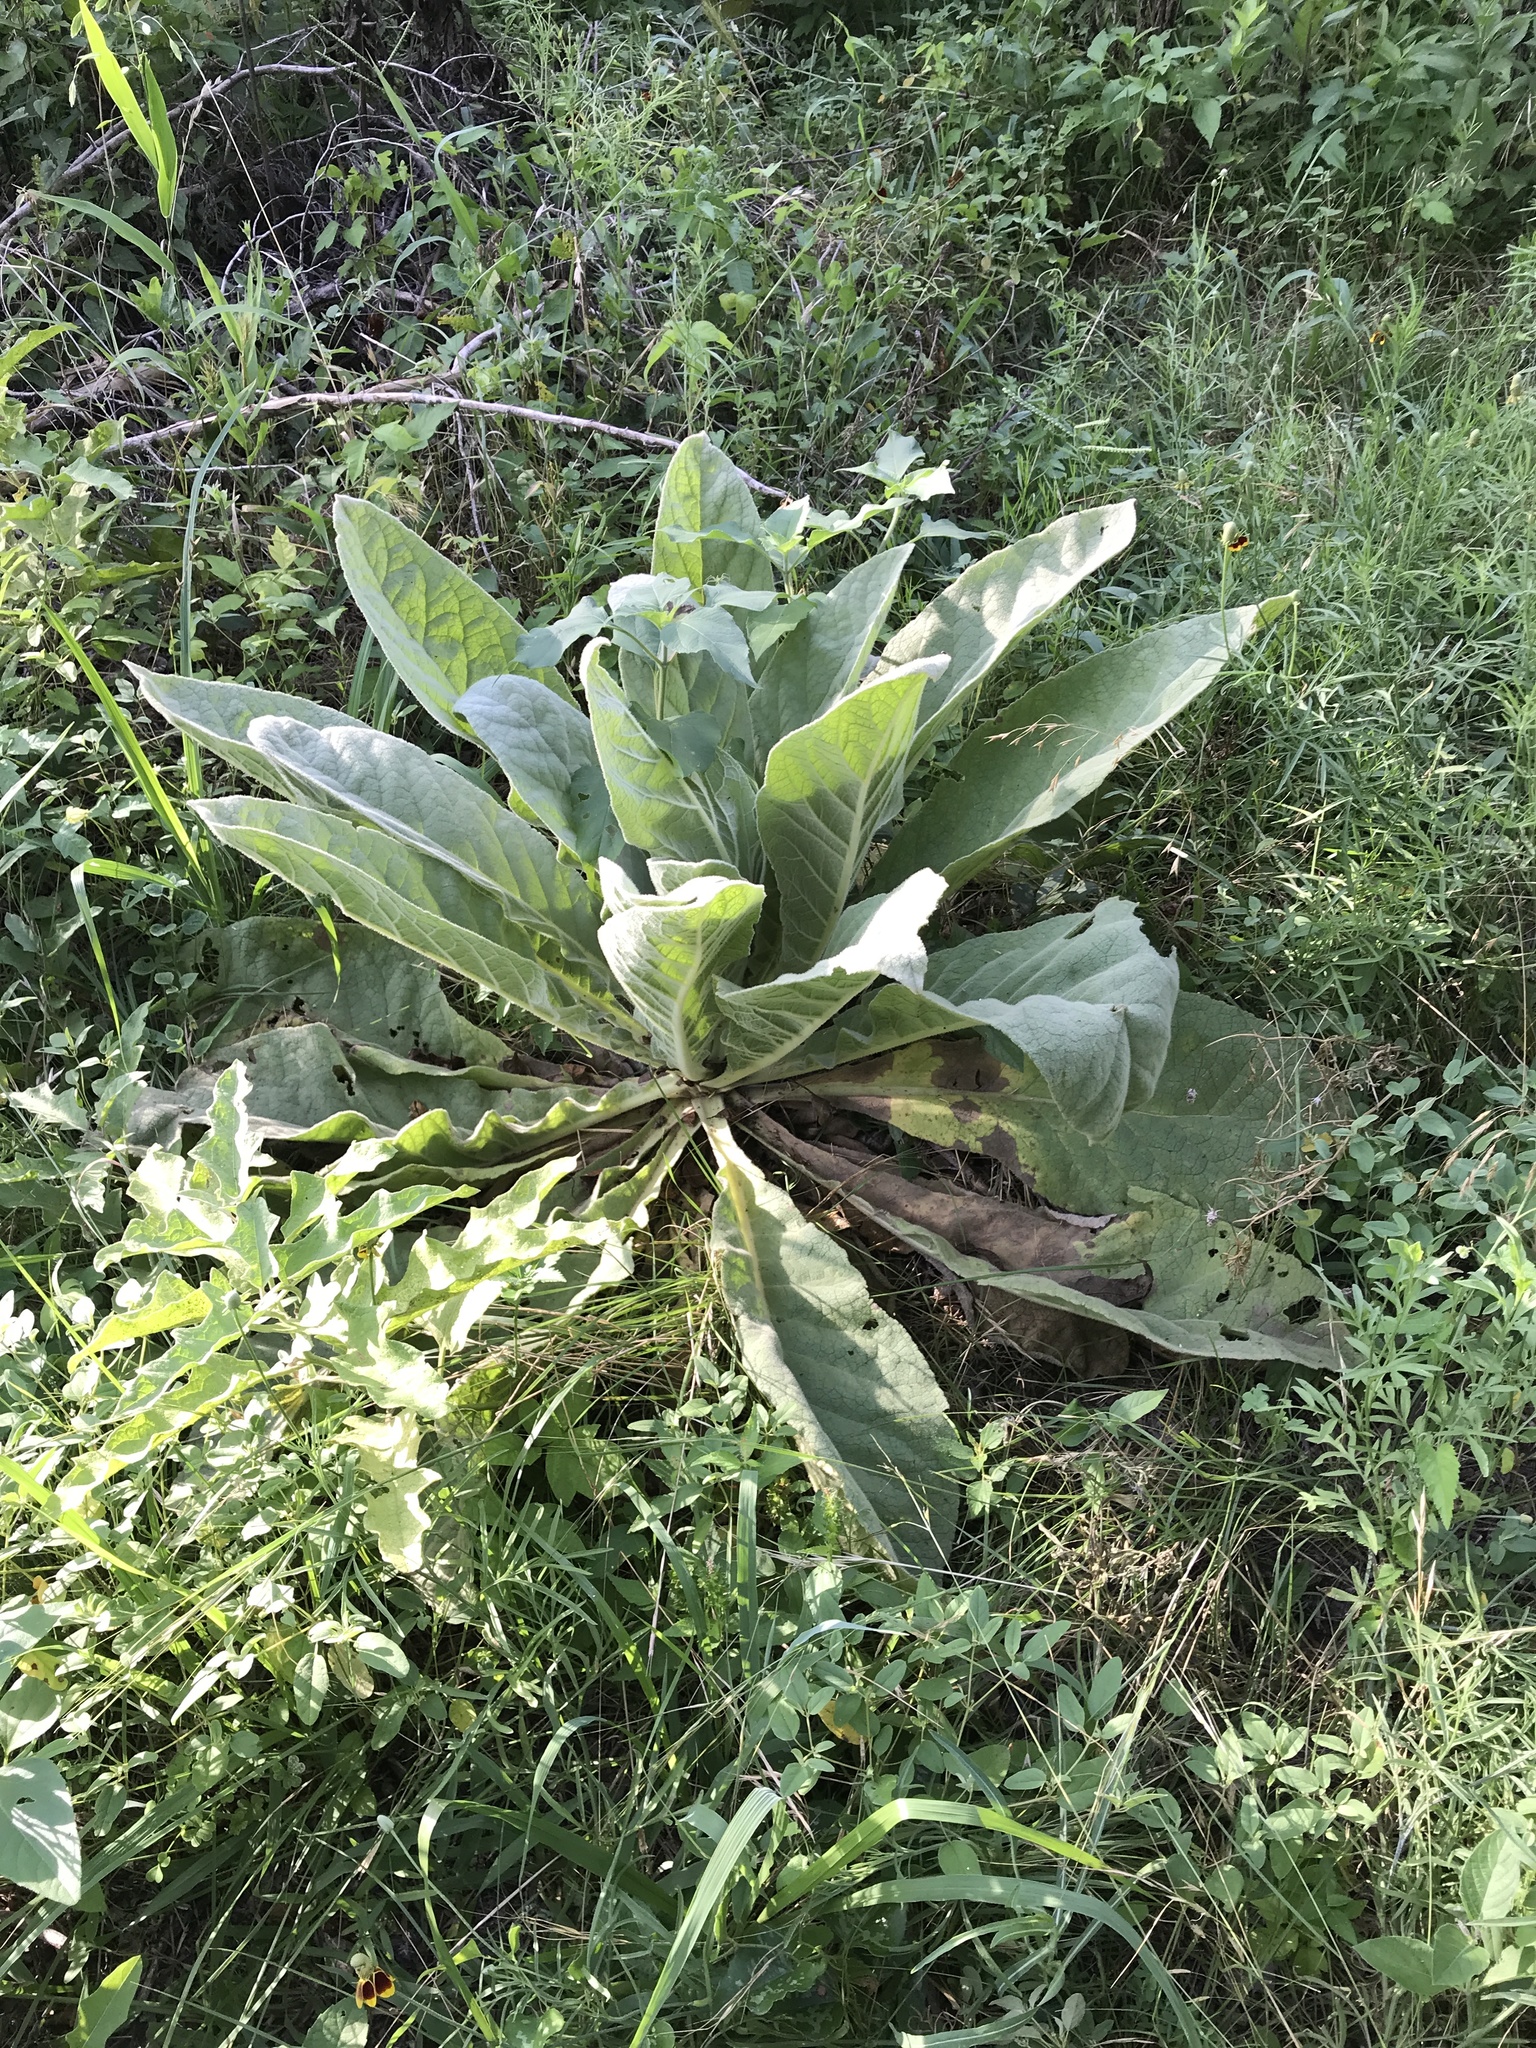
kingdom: Plantae
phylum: Tracheophyta
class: Magnoliopsida
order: Lamiales
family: Scrophulariaceae
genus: Verbascum
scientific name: Verbascum thapsus
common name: Common mullein
